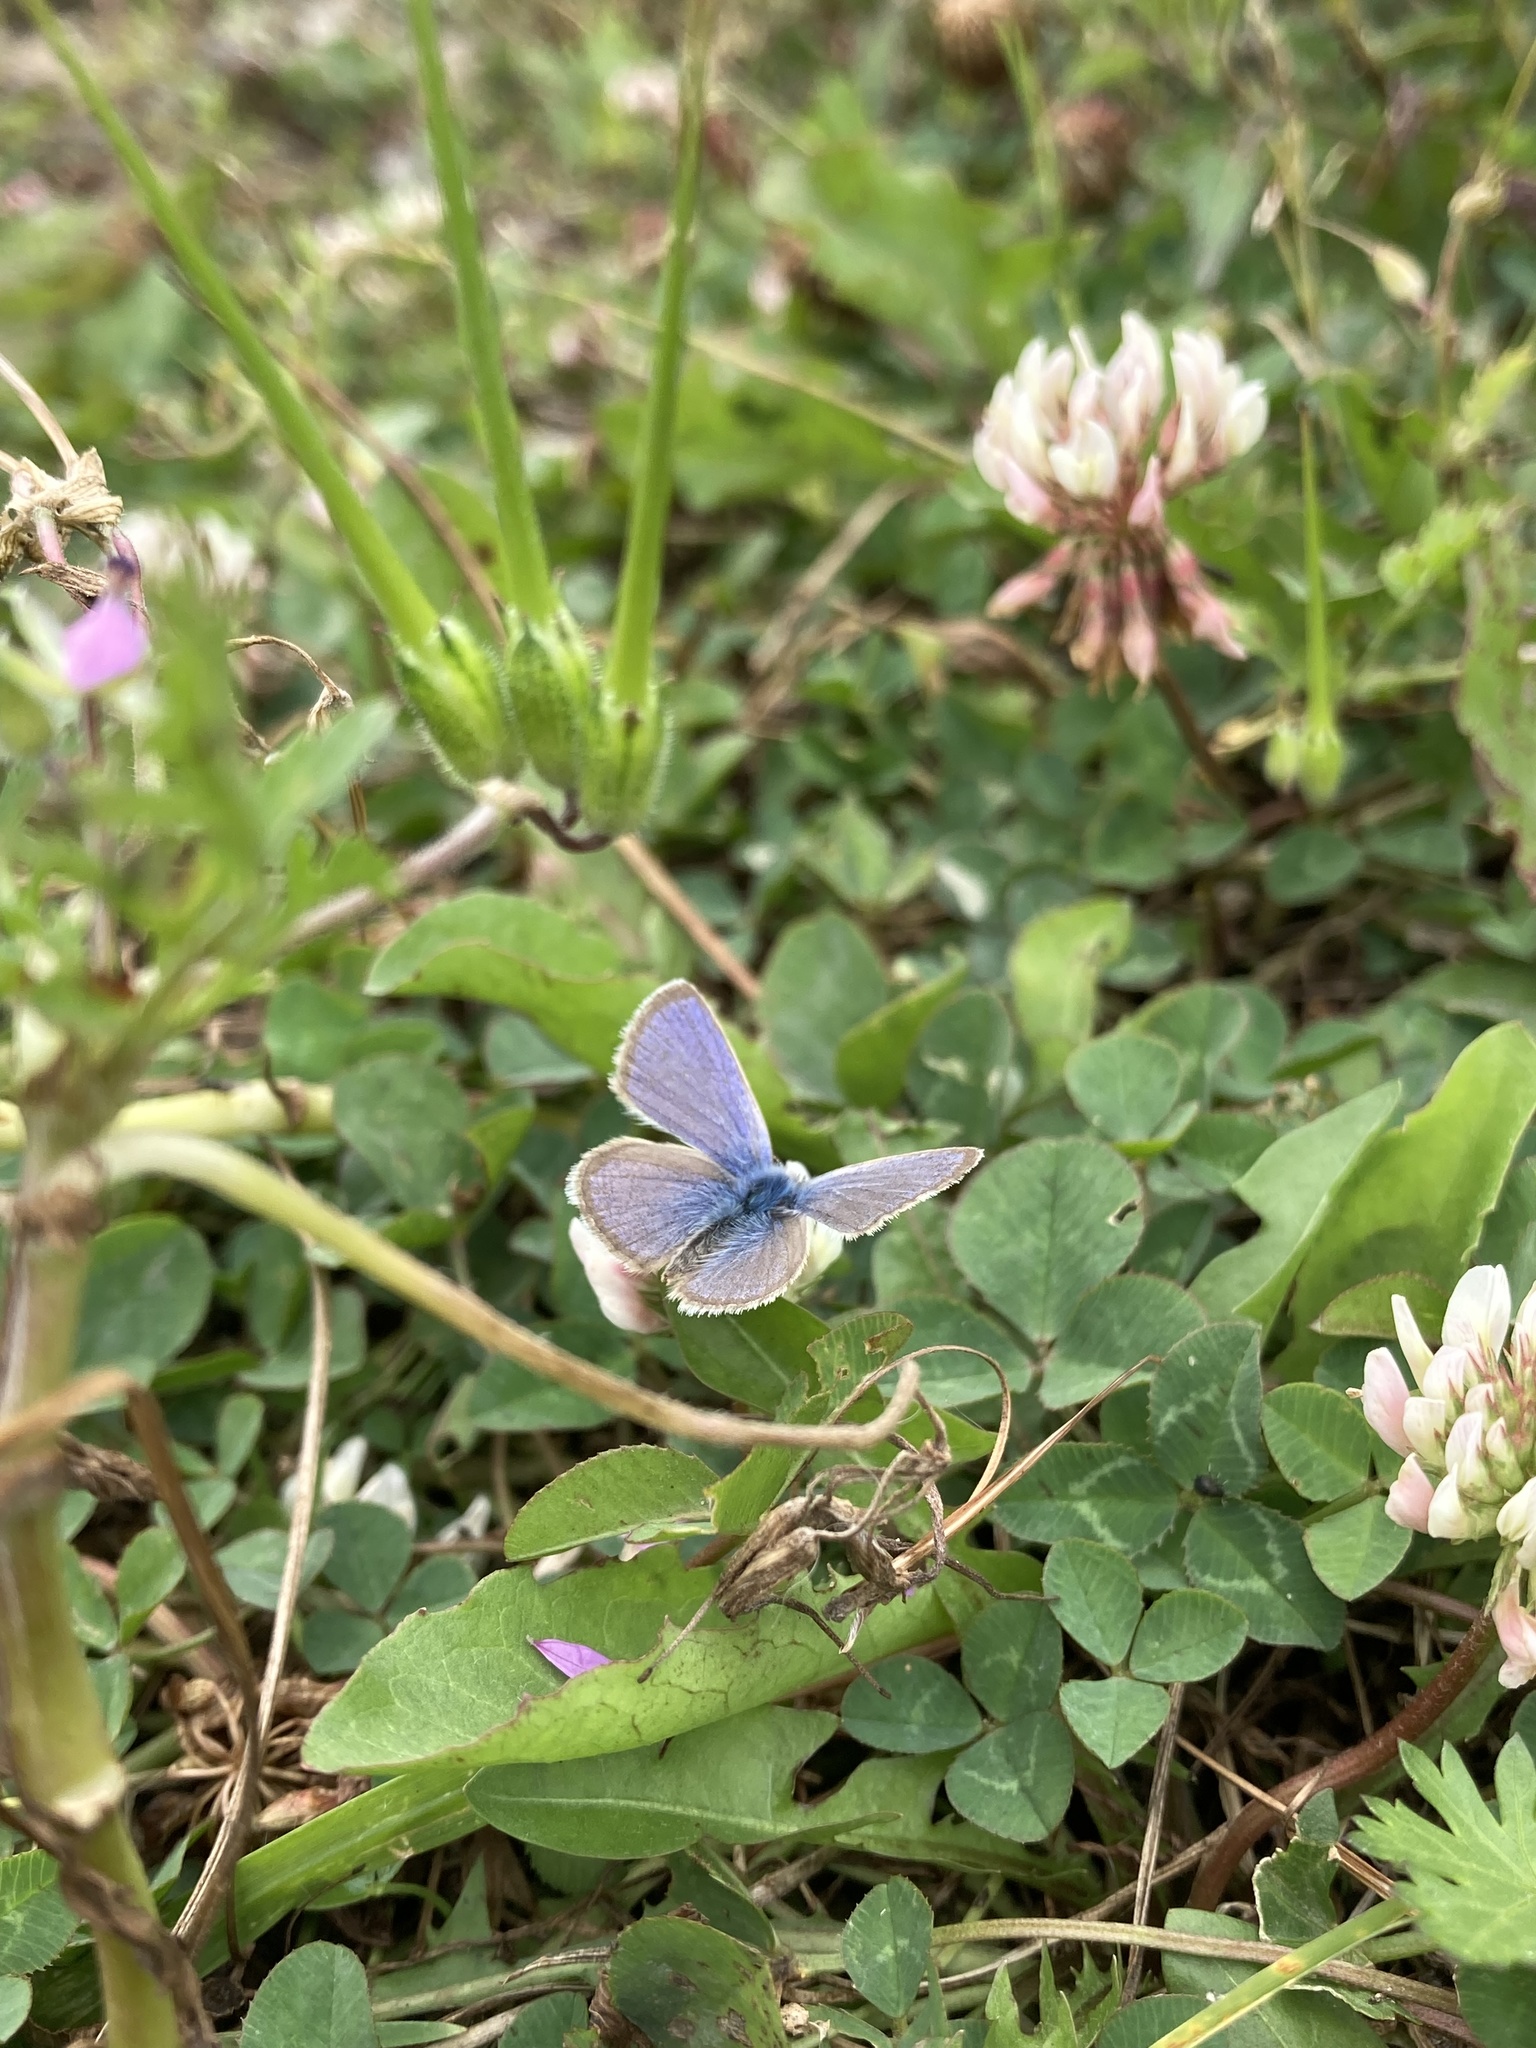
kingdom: Animalia
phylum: Arthropoda
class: Insecta
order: Lepidoptera
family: Lycaenidae
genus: Hemiargus
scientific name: Hemiargus hanno
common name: Common blue
